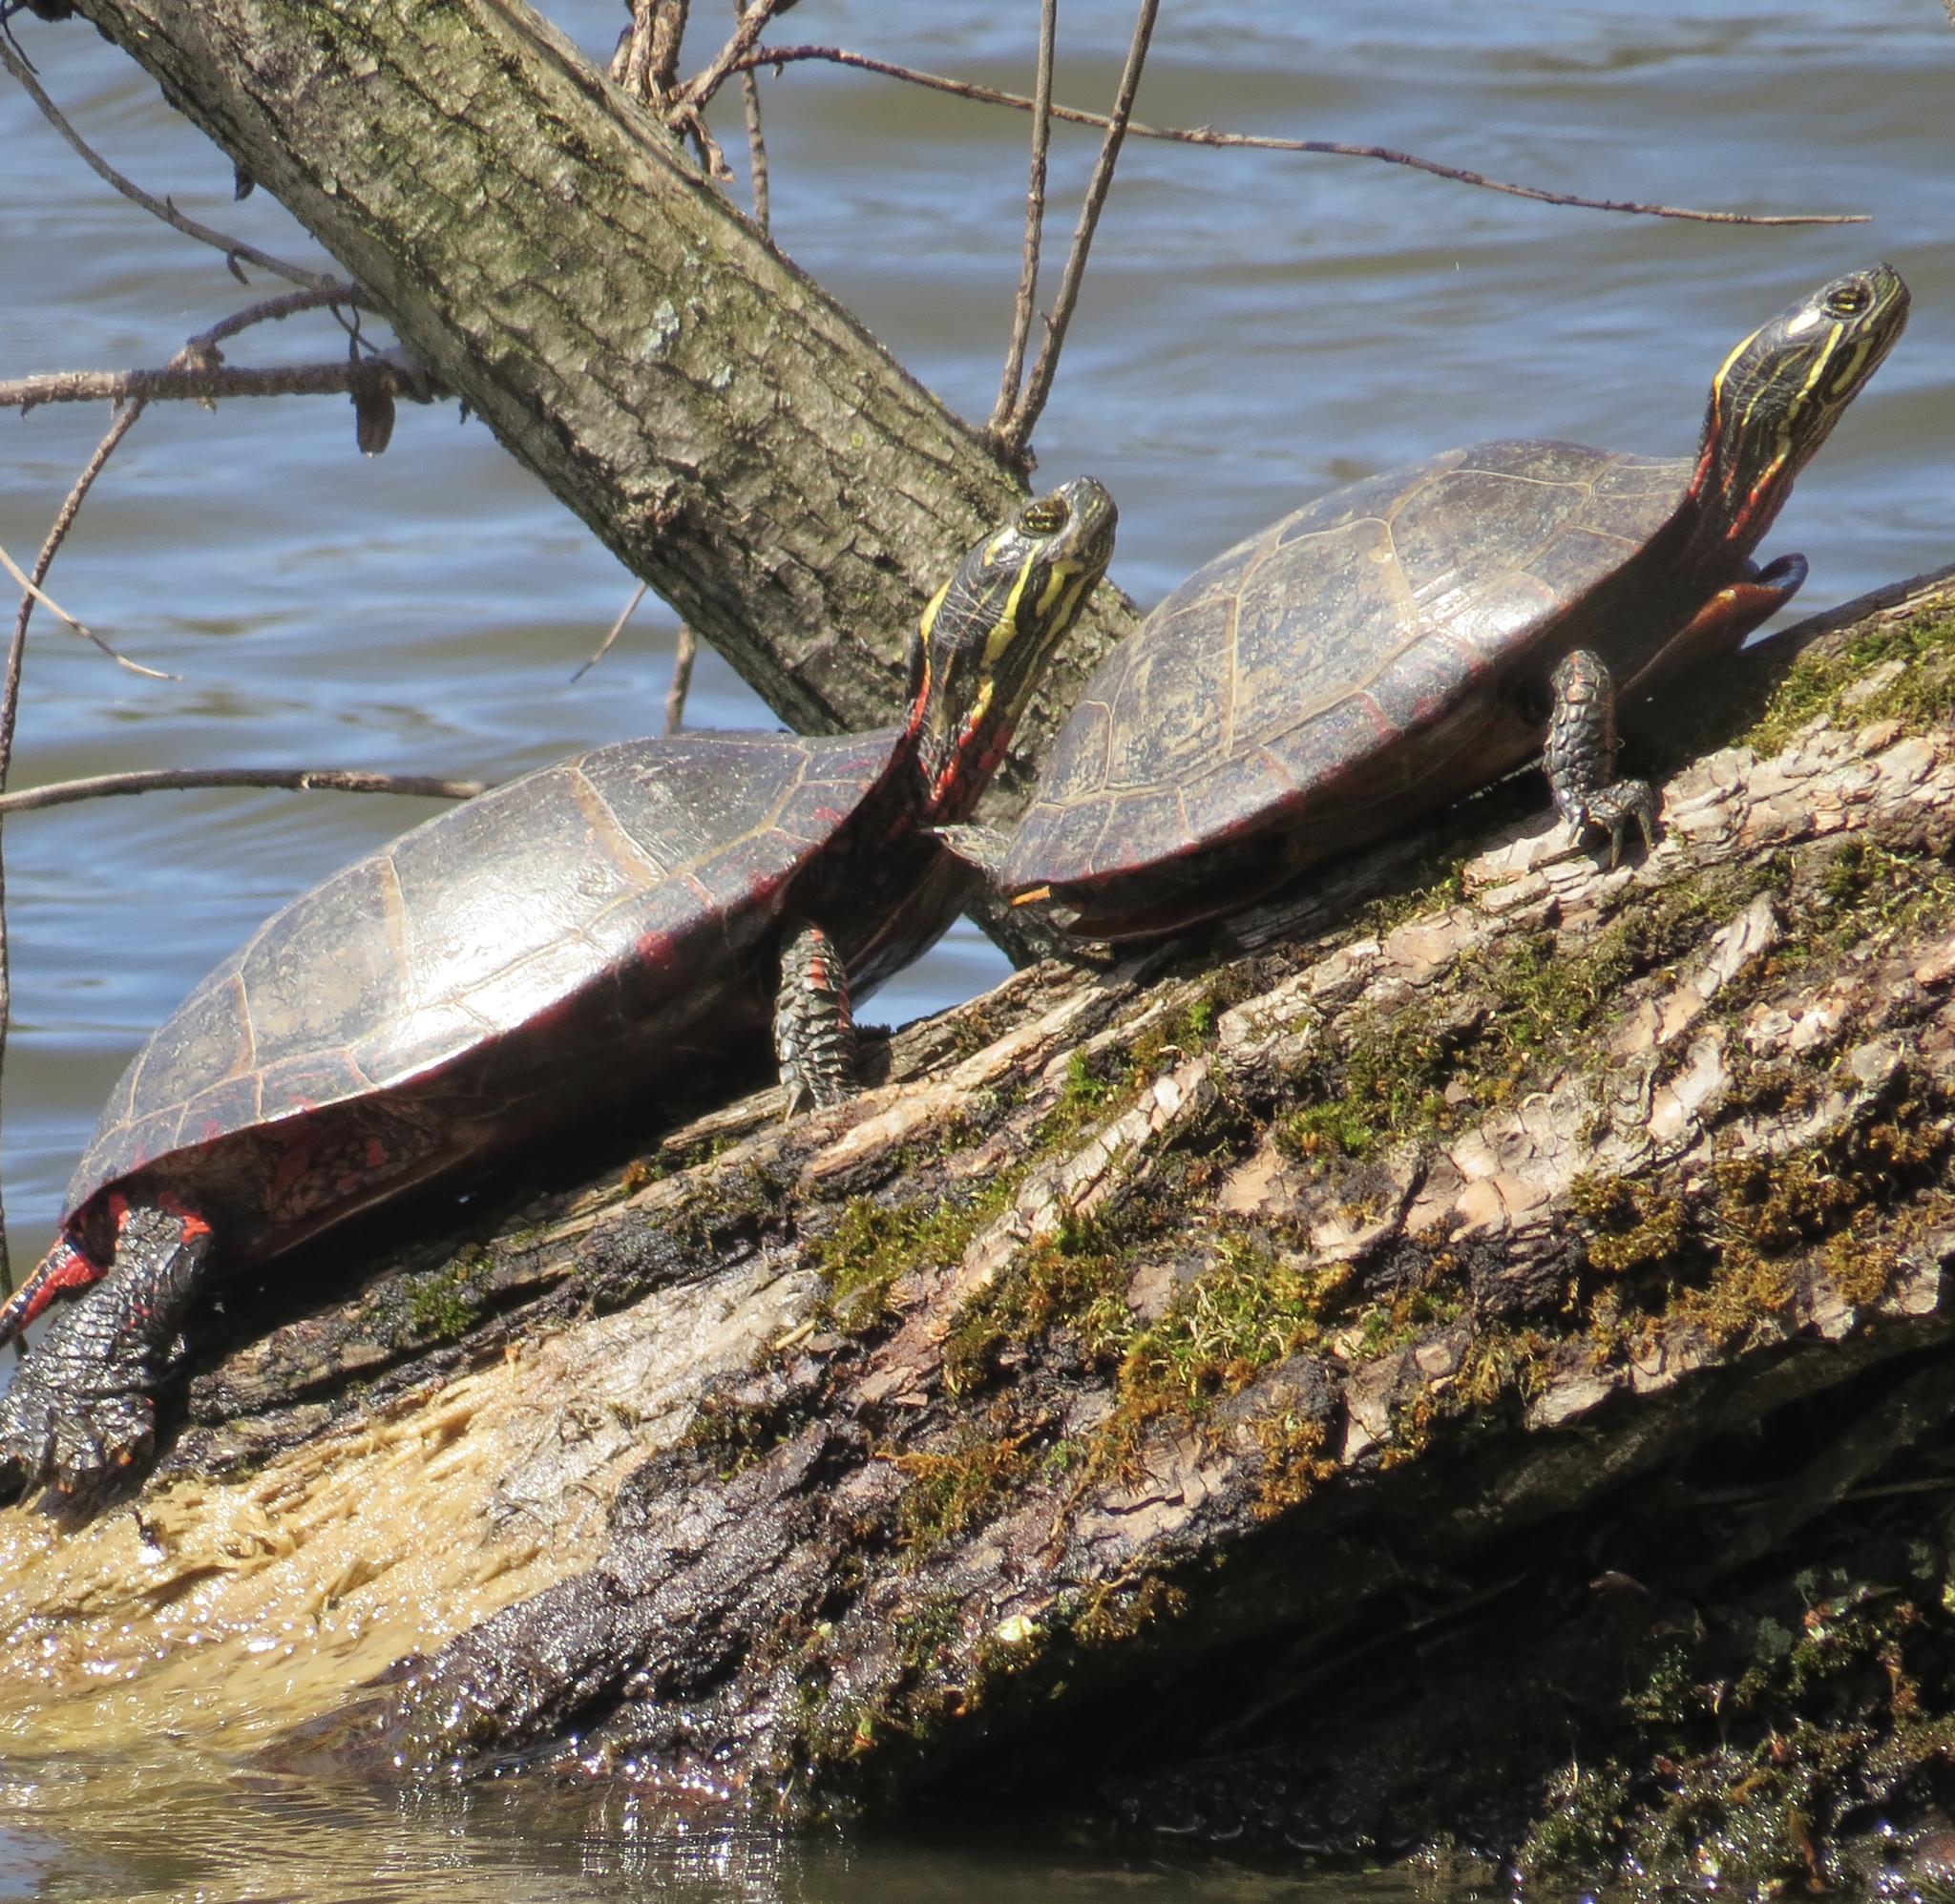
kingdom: Animalia
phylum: Chordata
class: Testudines
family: Emydidae
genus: Chrysemys
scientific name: Chrysemys picta
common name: Painted turtle
